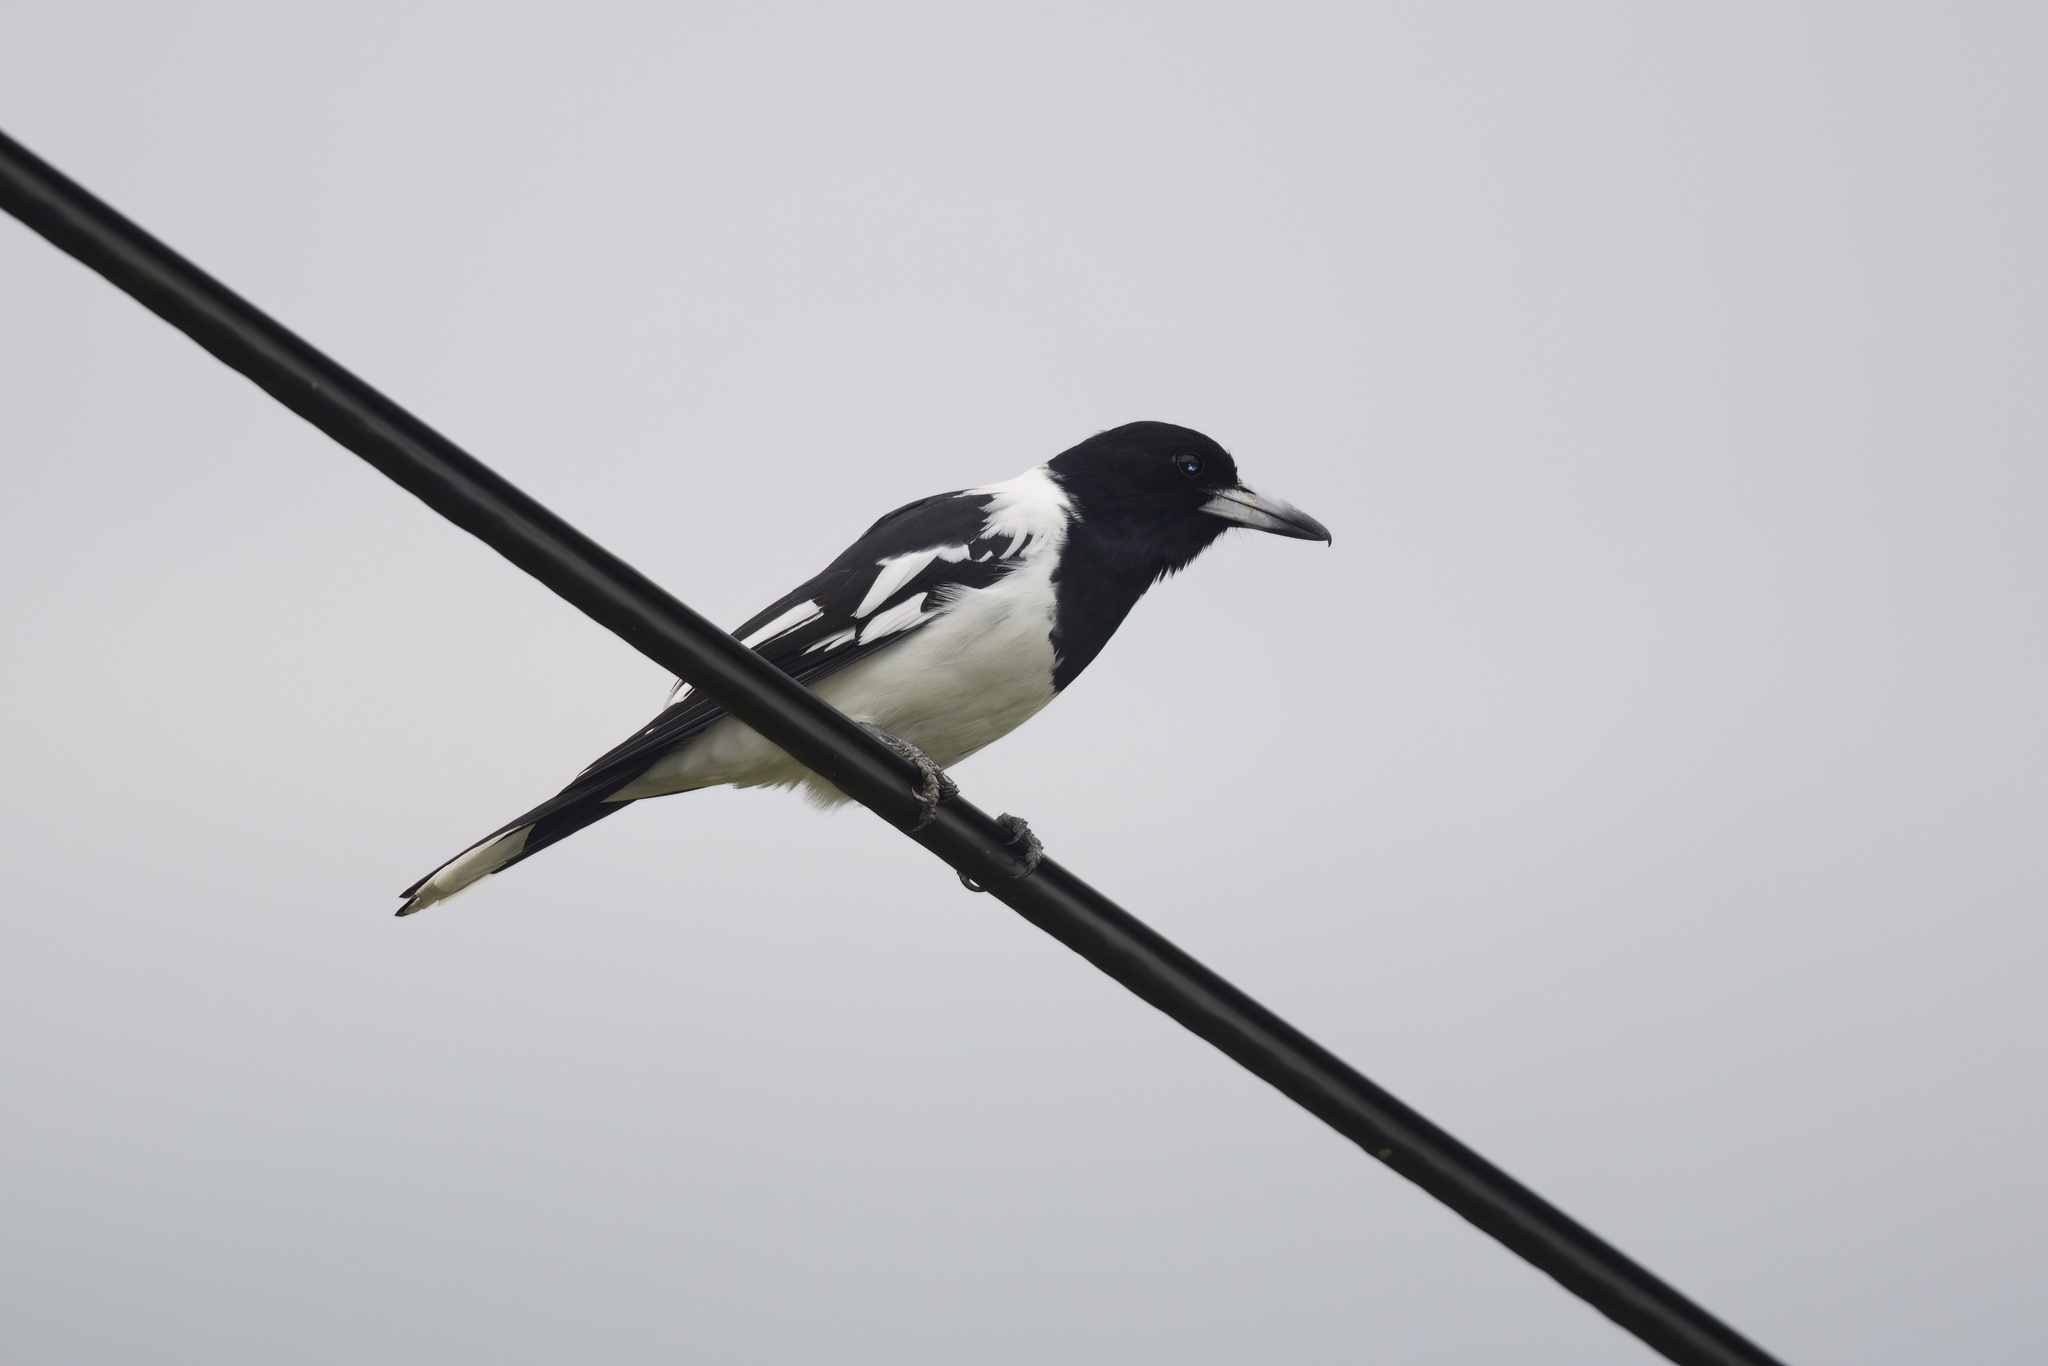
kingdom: Animalia
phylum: Chordata
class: Aves
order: Passeriformes
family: Cracticidae
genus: Cracticus
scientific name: Cracticus nigrogularis
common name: Pied butcherbird
